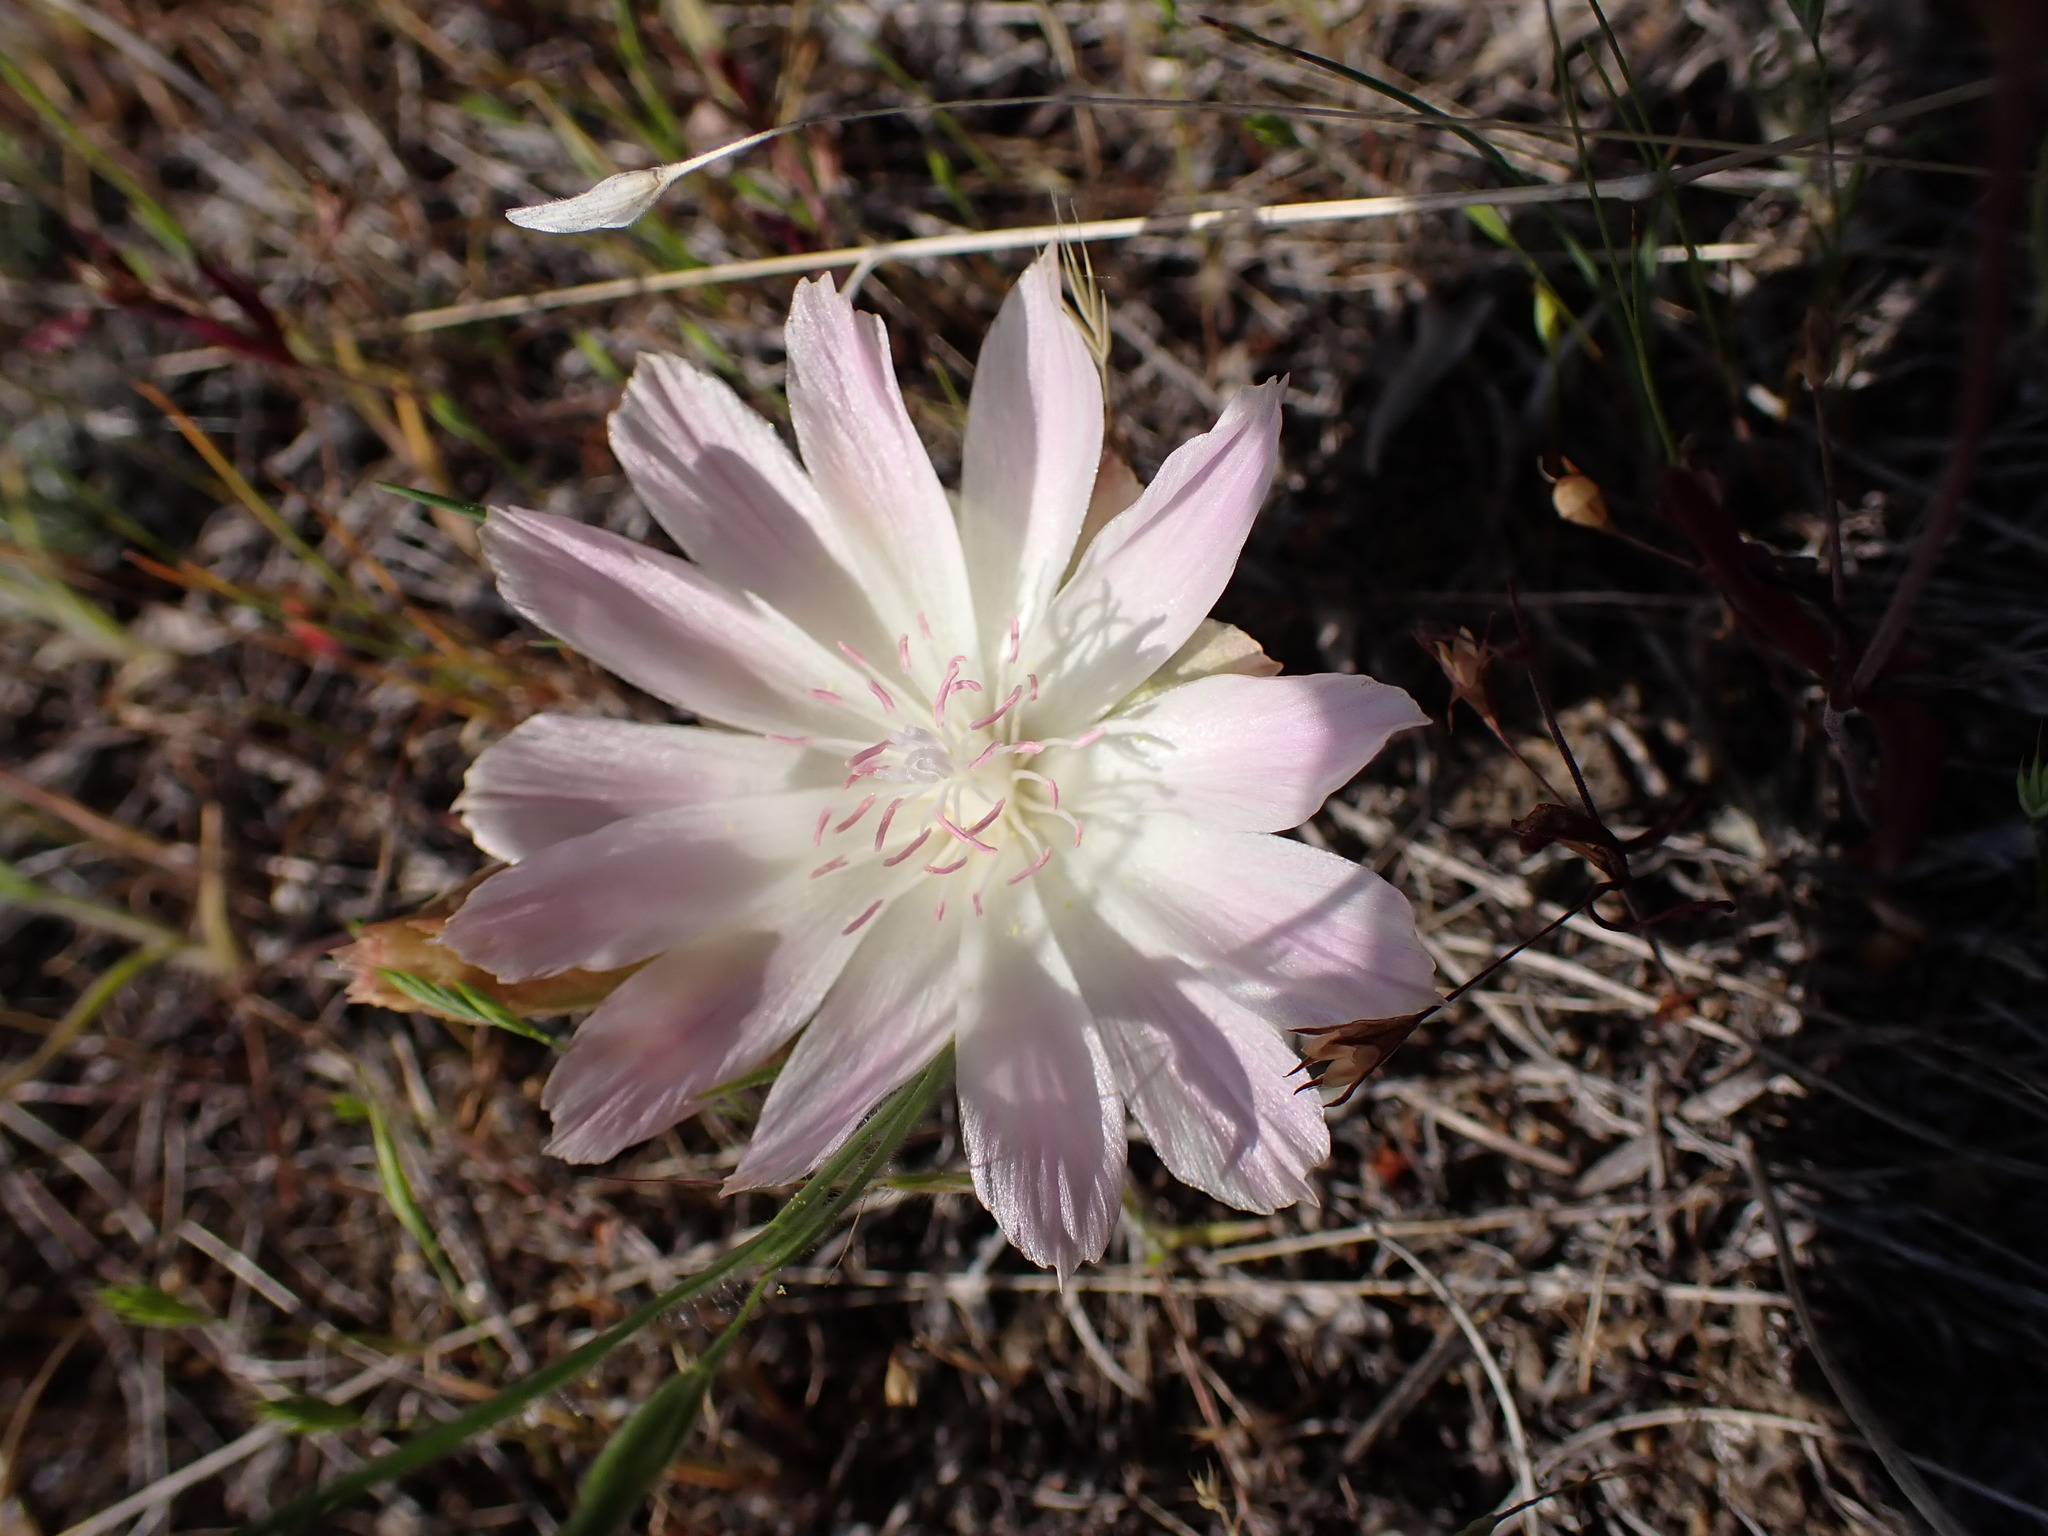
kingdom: Plantae
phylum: Tracheophyta
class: Magnoliopsida
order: Caryophyllales
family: Montiaceae
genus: Lewisia
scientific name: Lewisia rediviva
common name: Bitter-root
